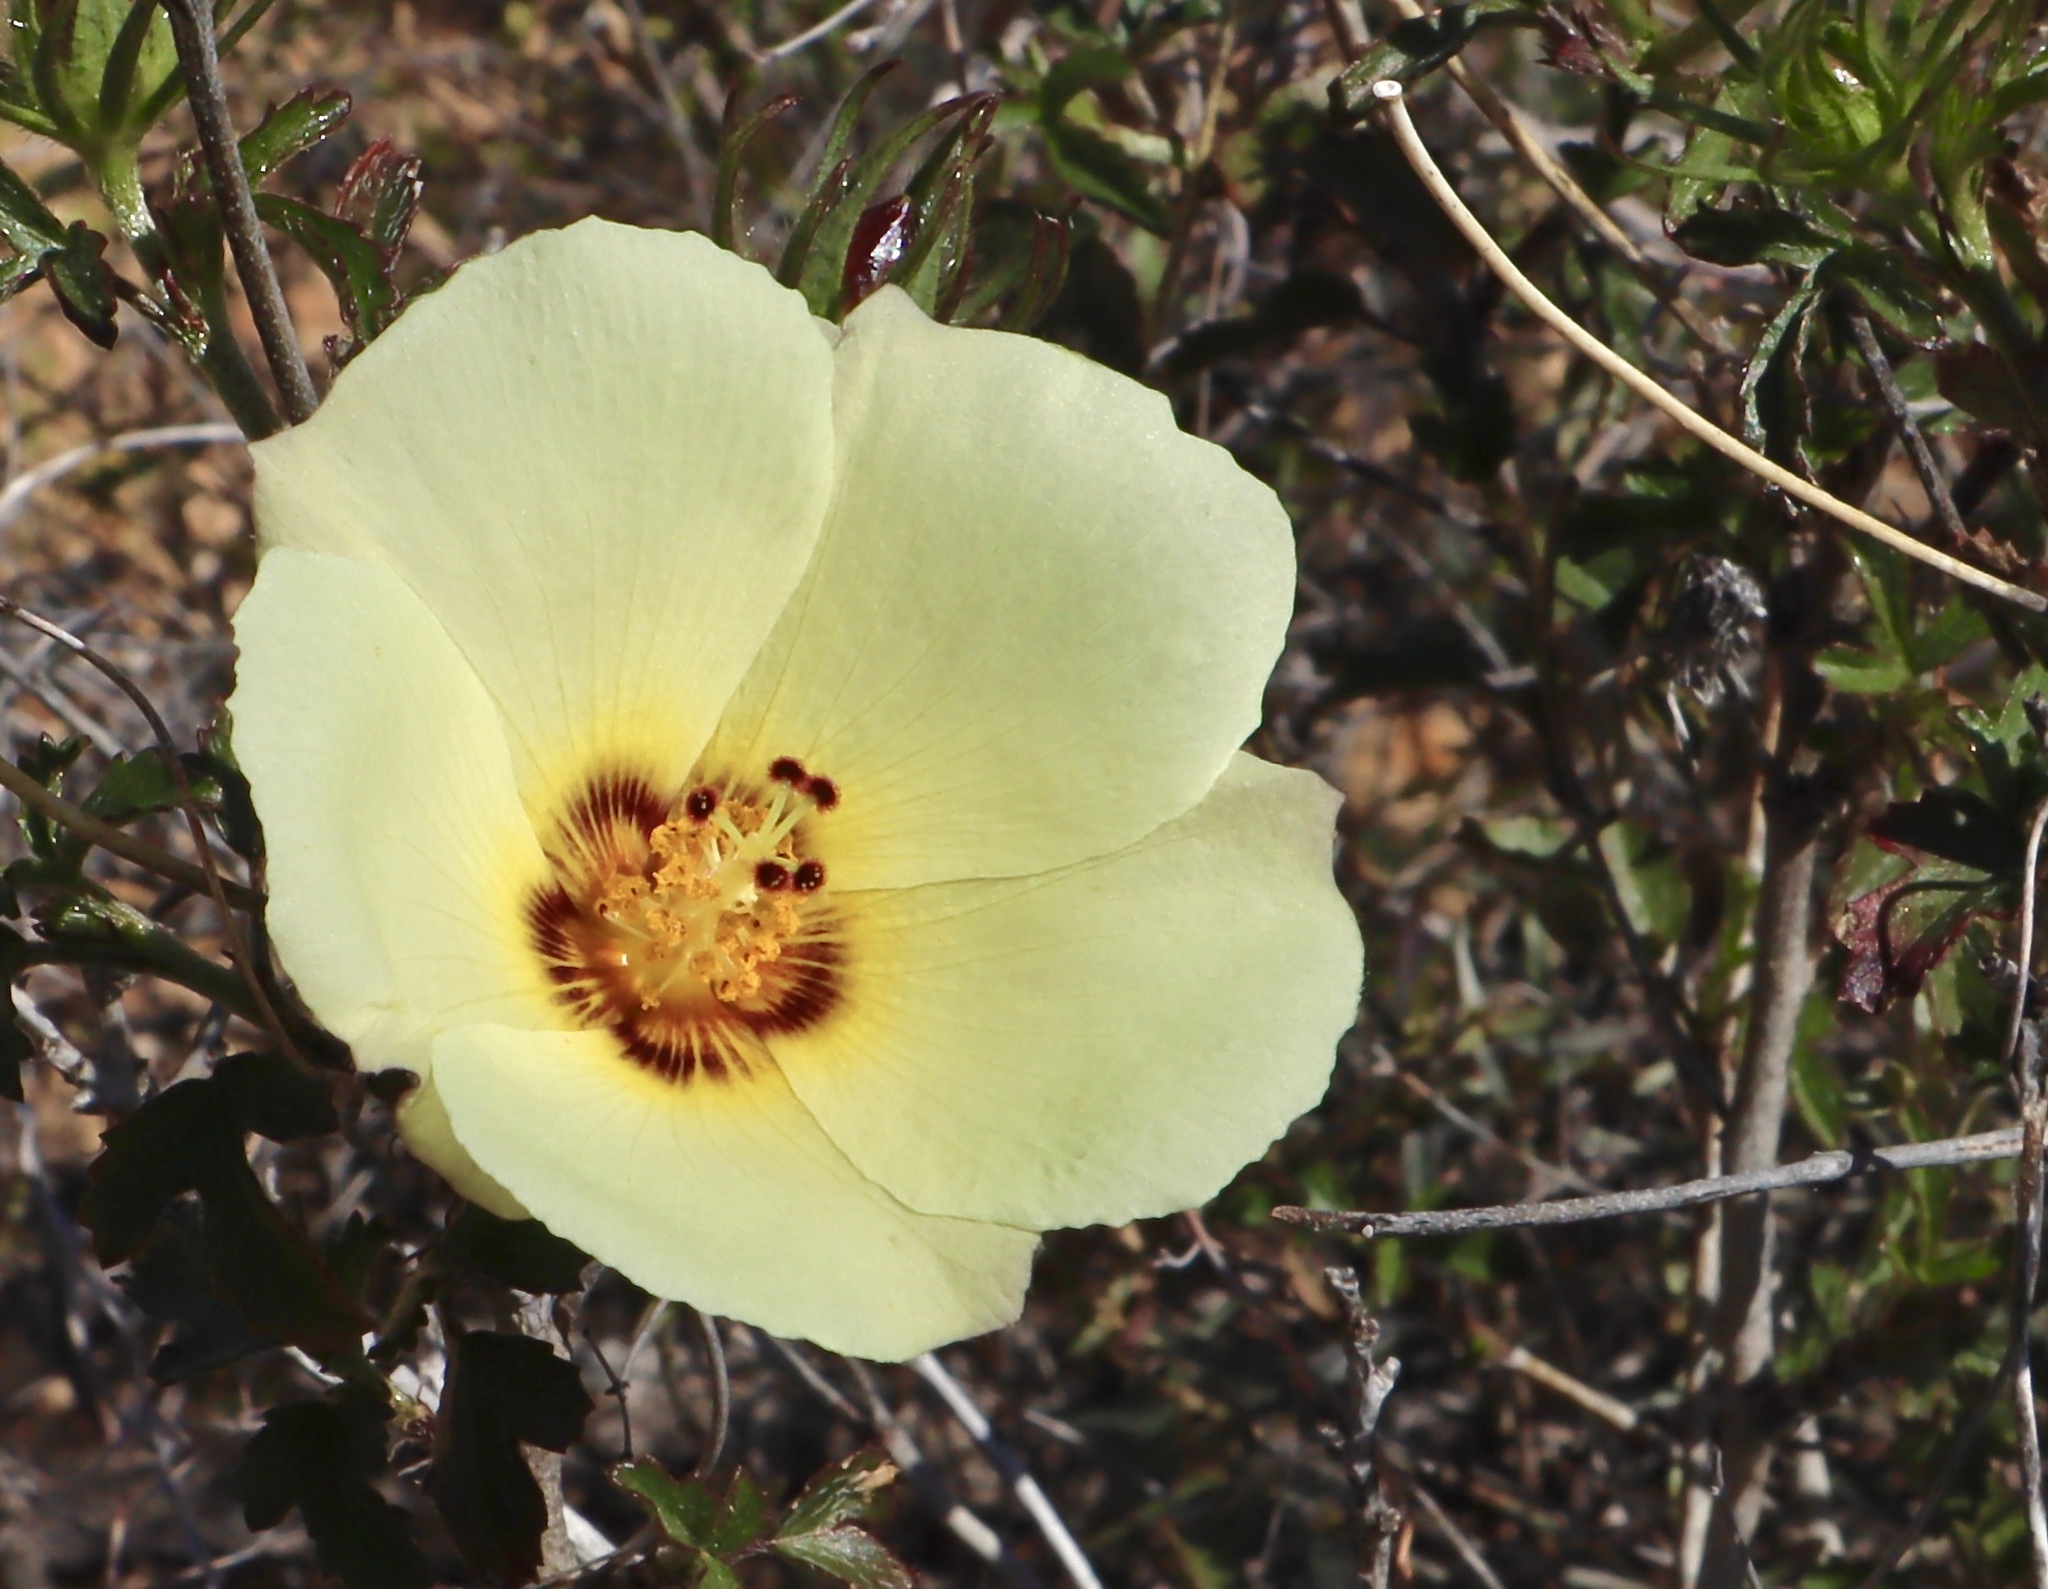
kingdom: Plantae
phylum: Tracheophyta
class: Magnoliopsida
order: Malvales
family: Malvaceae
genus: Hibiscus
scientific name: Hibiscus coulteri
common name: Desert rose-mallow
